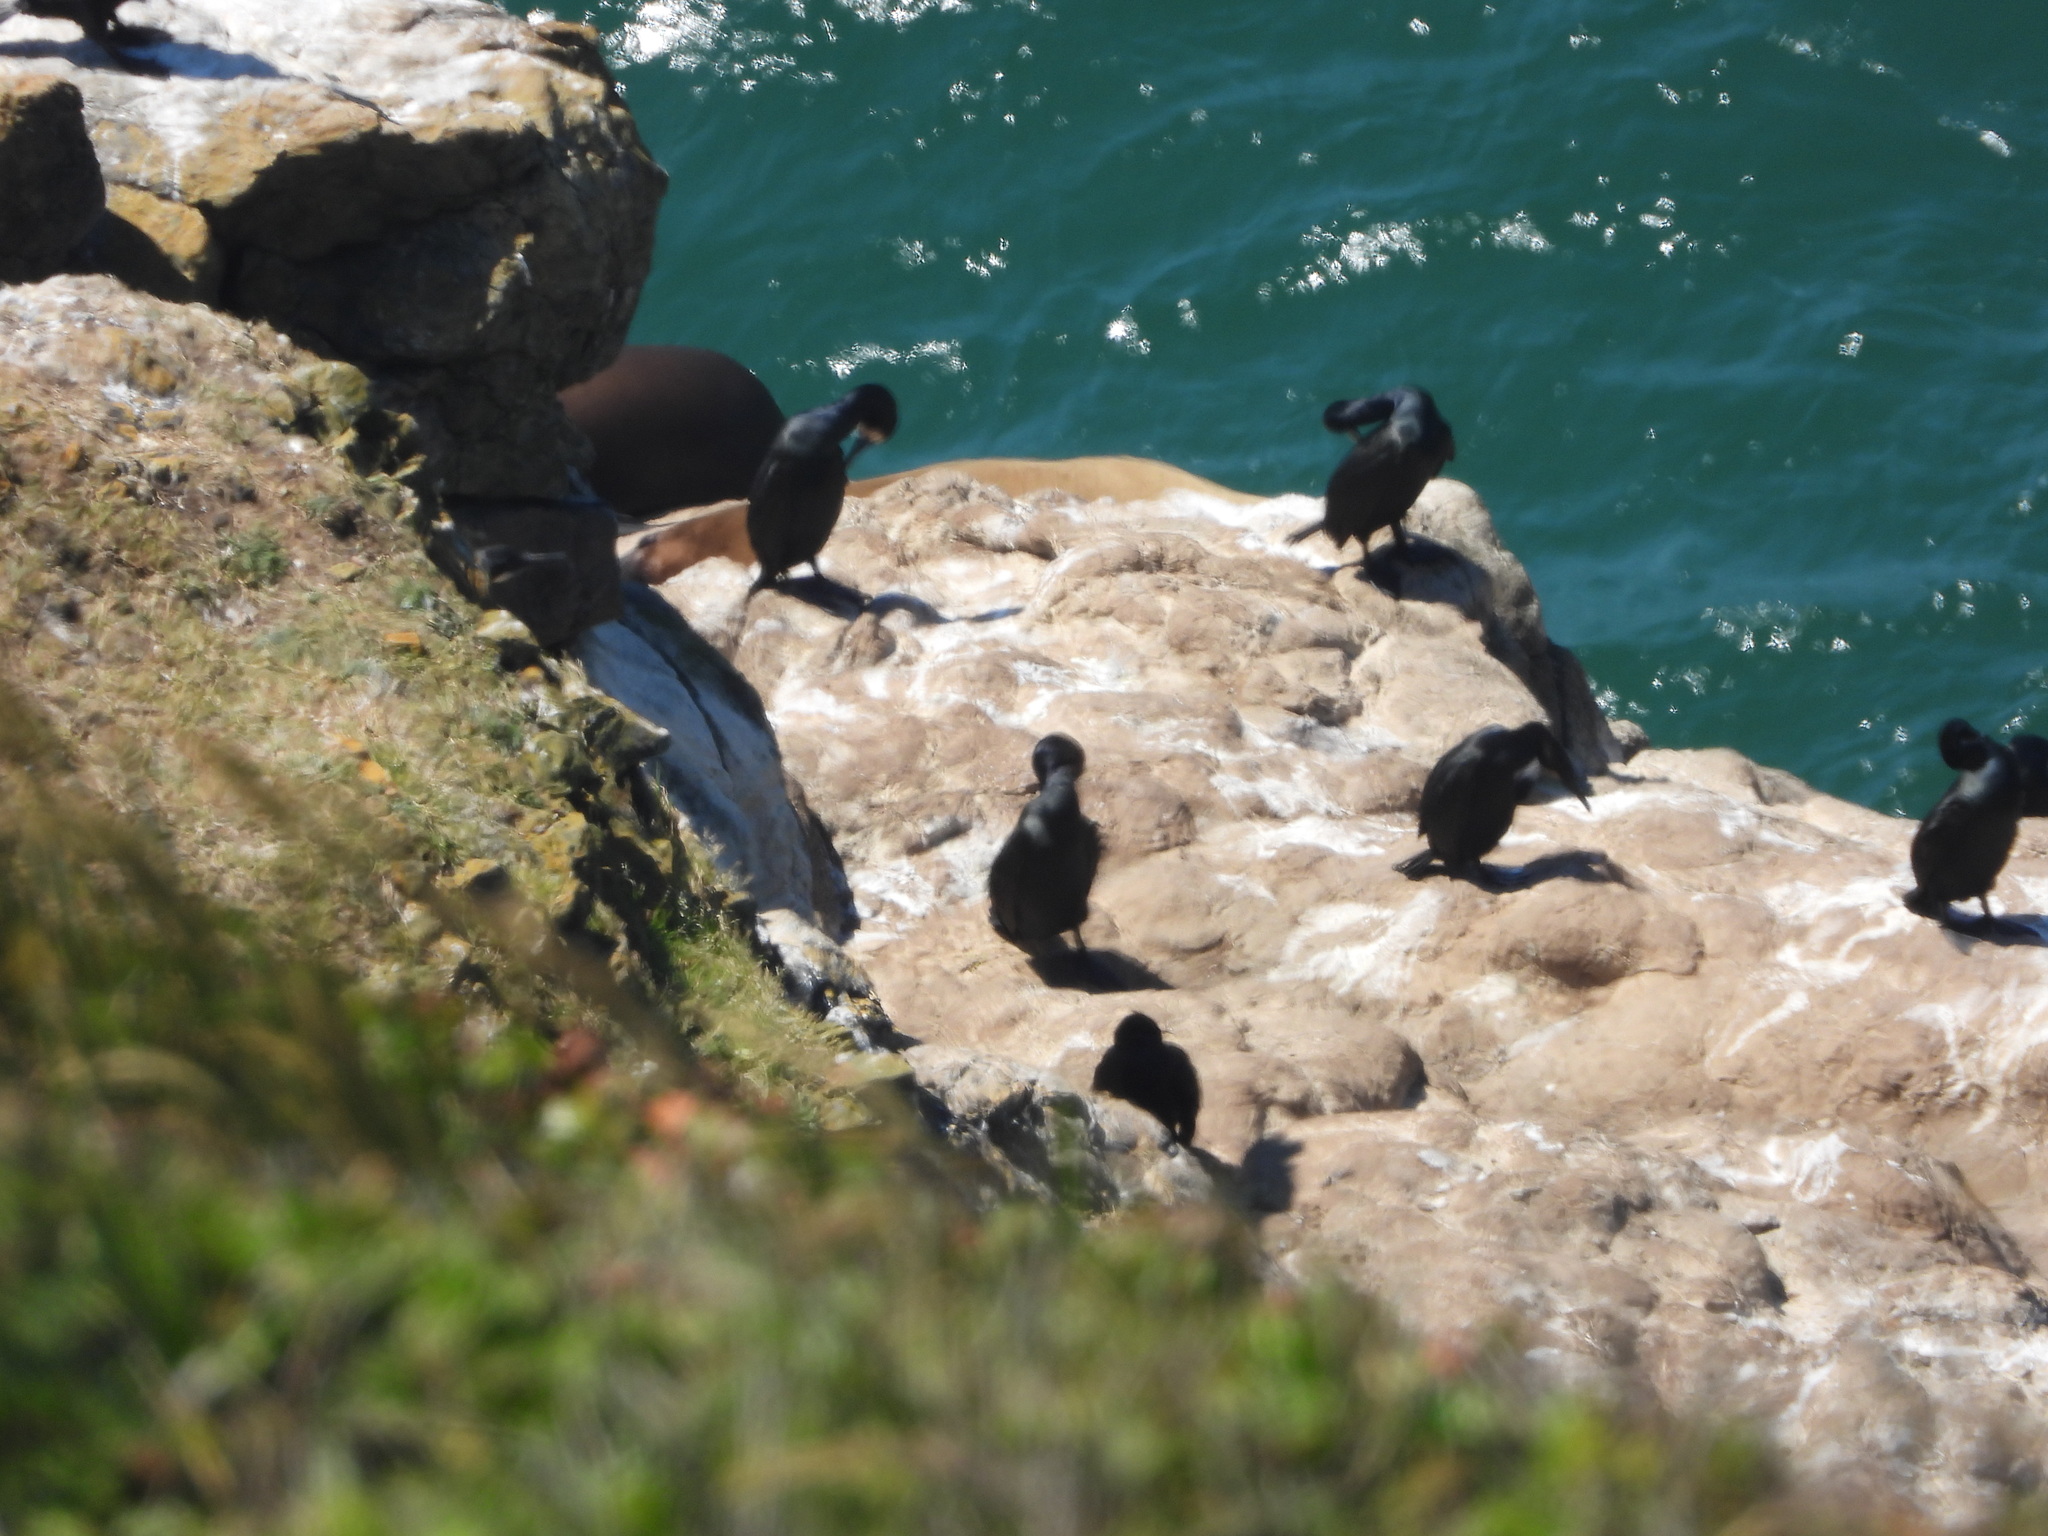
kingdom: Animalia
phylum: Chordata
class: Aves
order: Suliformes
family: Phalacrocoracidae
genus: Urile
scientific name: Urile penicillatus
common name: Brandt's cormorant
